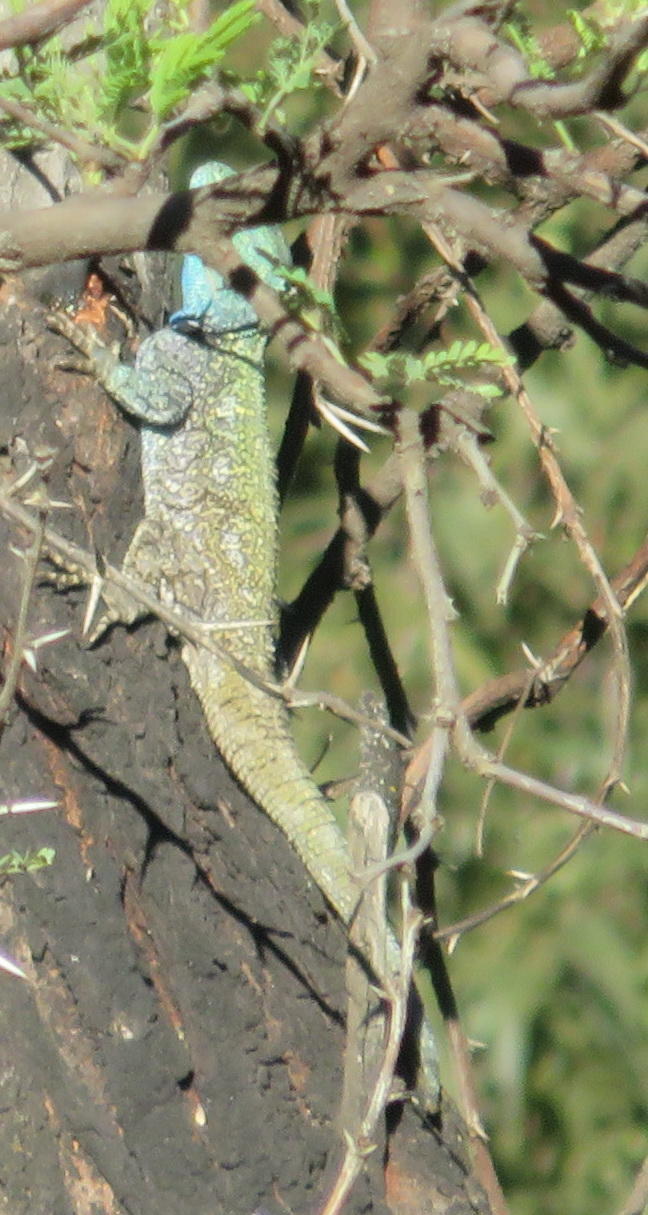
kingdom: Animalia
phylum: Chordata
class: Squamata
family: Agamidae
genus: Acanthocercus
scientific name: Acanthocercus atricollis
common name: Southern tree agama
